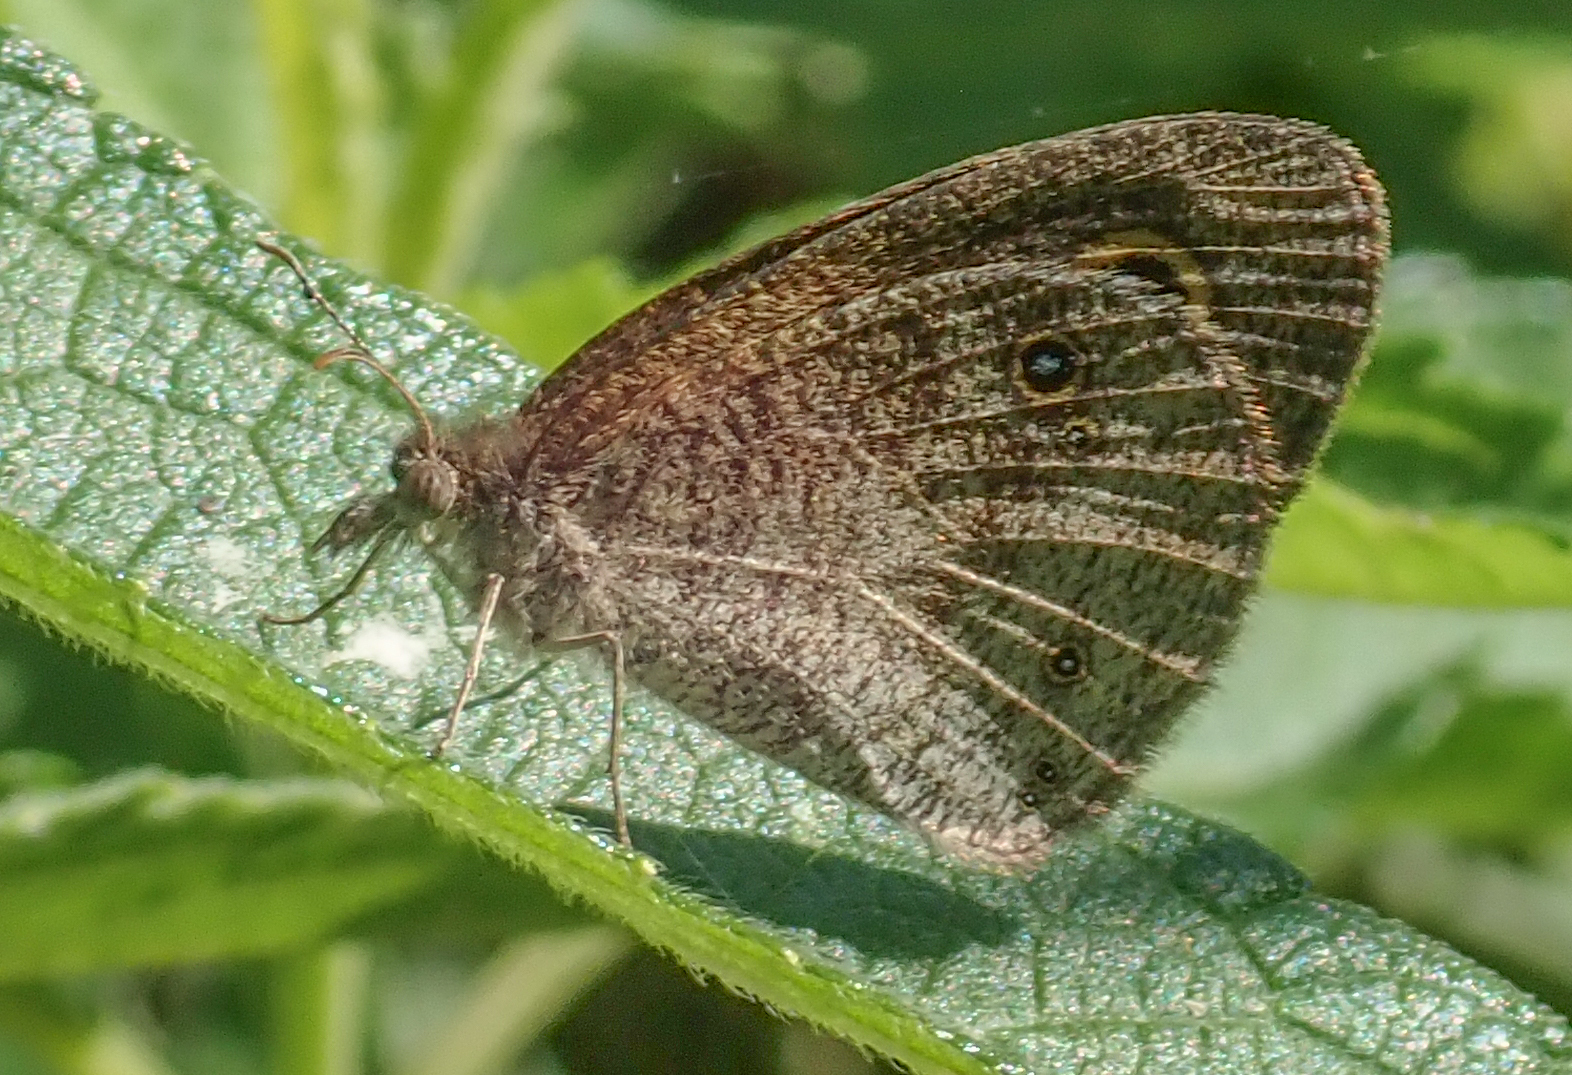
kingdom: Animalia
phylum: Arthropoda
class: Insecta
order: Lepidoptera
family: Nymphalidae
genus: Ypthimomorpha
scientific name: Ypthimomorpha itonia
